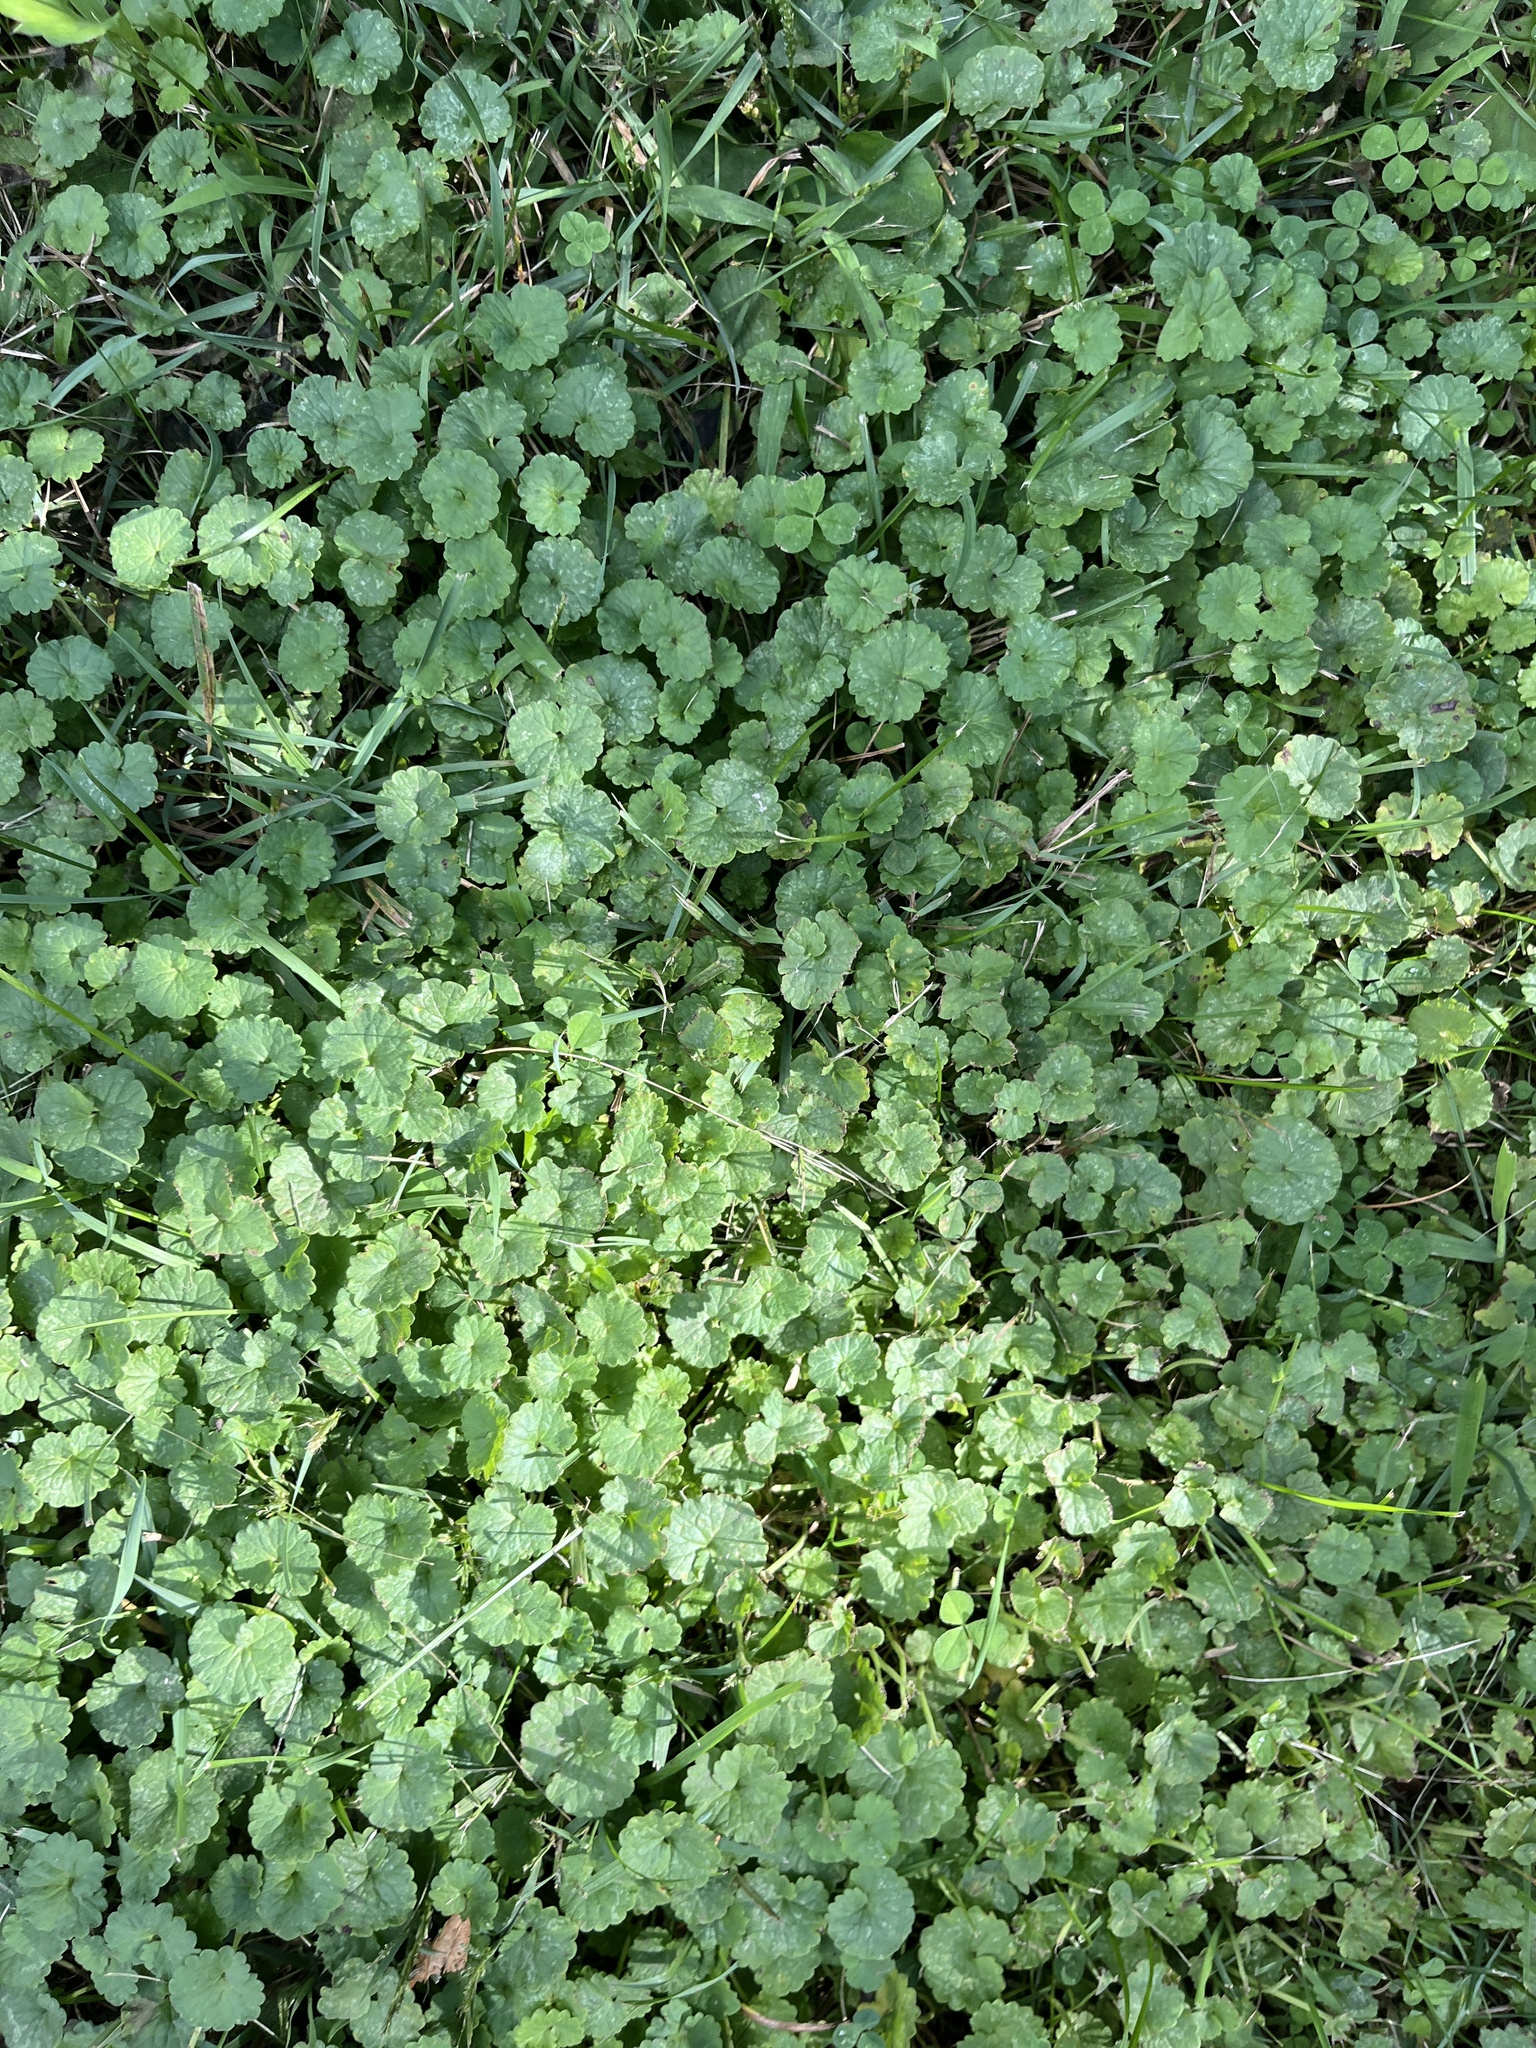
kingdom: Plantae
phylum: Tracheophyta
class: Magnoliopsida
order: Lamiales
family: Lamiaceae
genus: Glechoma
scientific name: Glechoma hederacea
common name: Ground ivy
